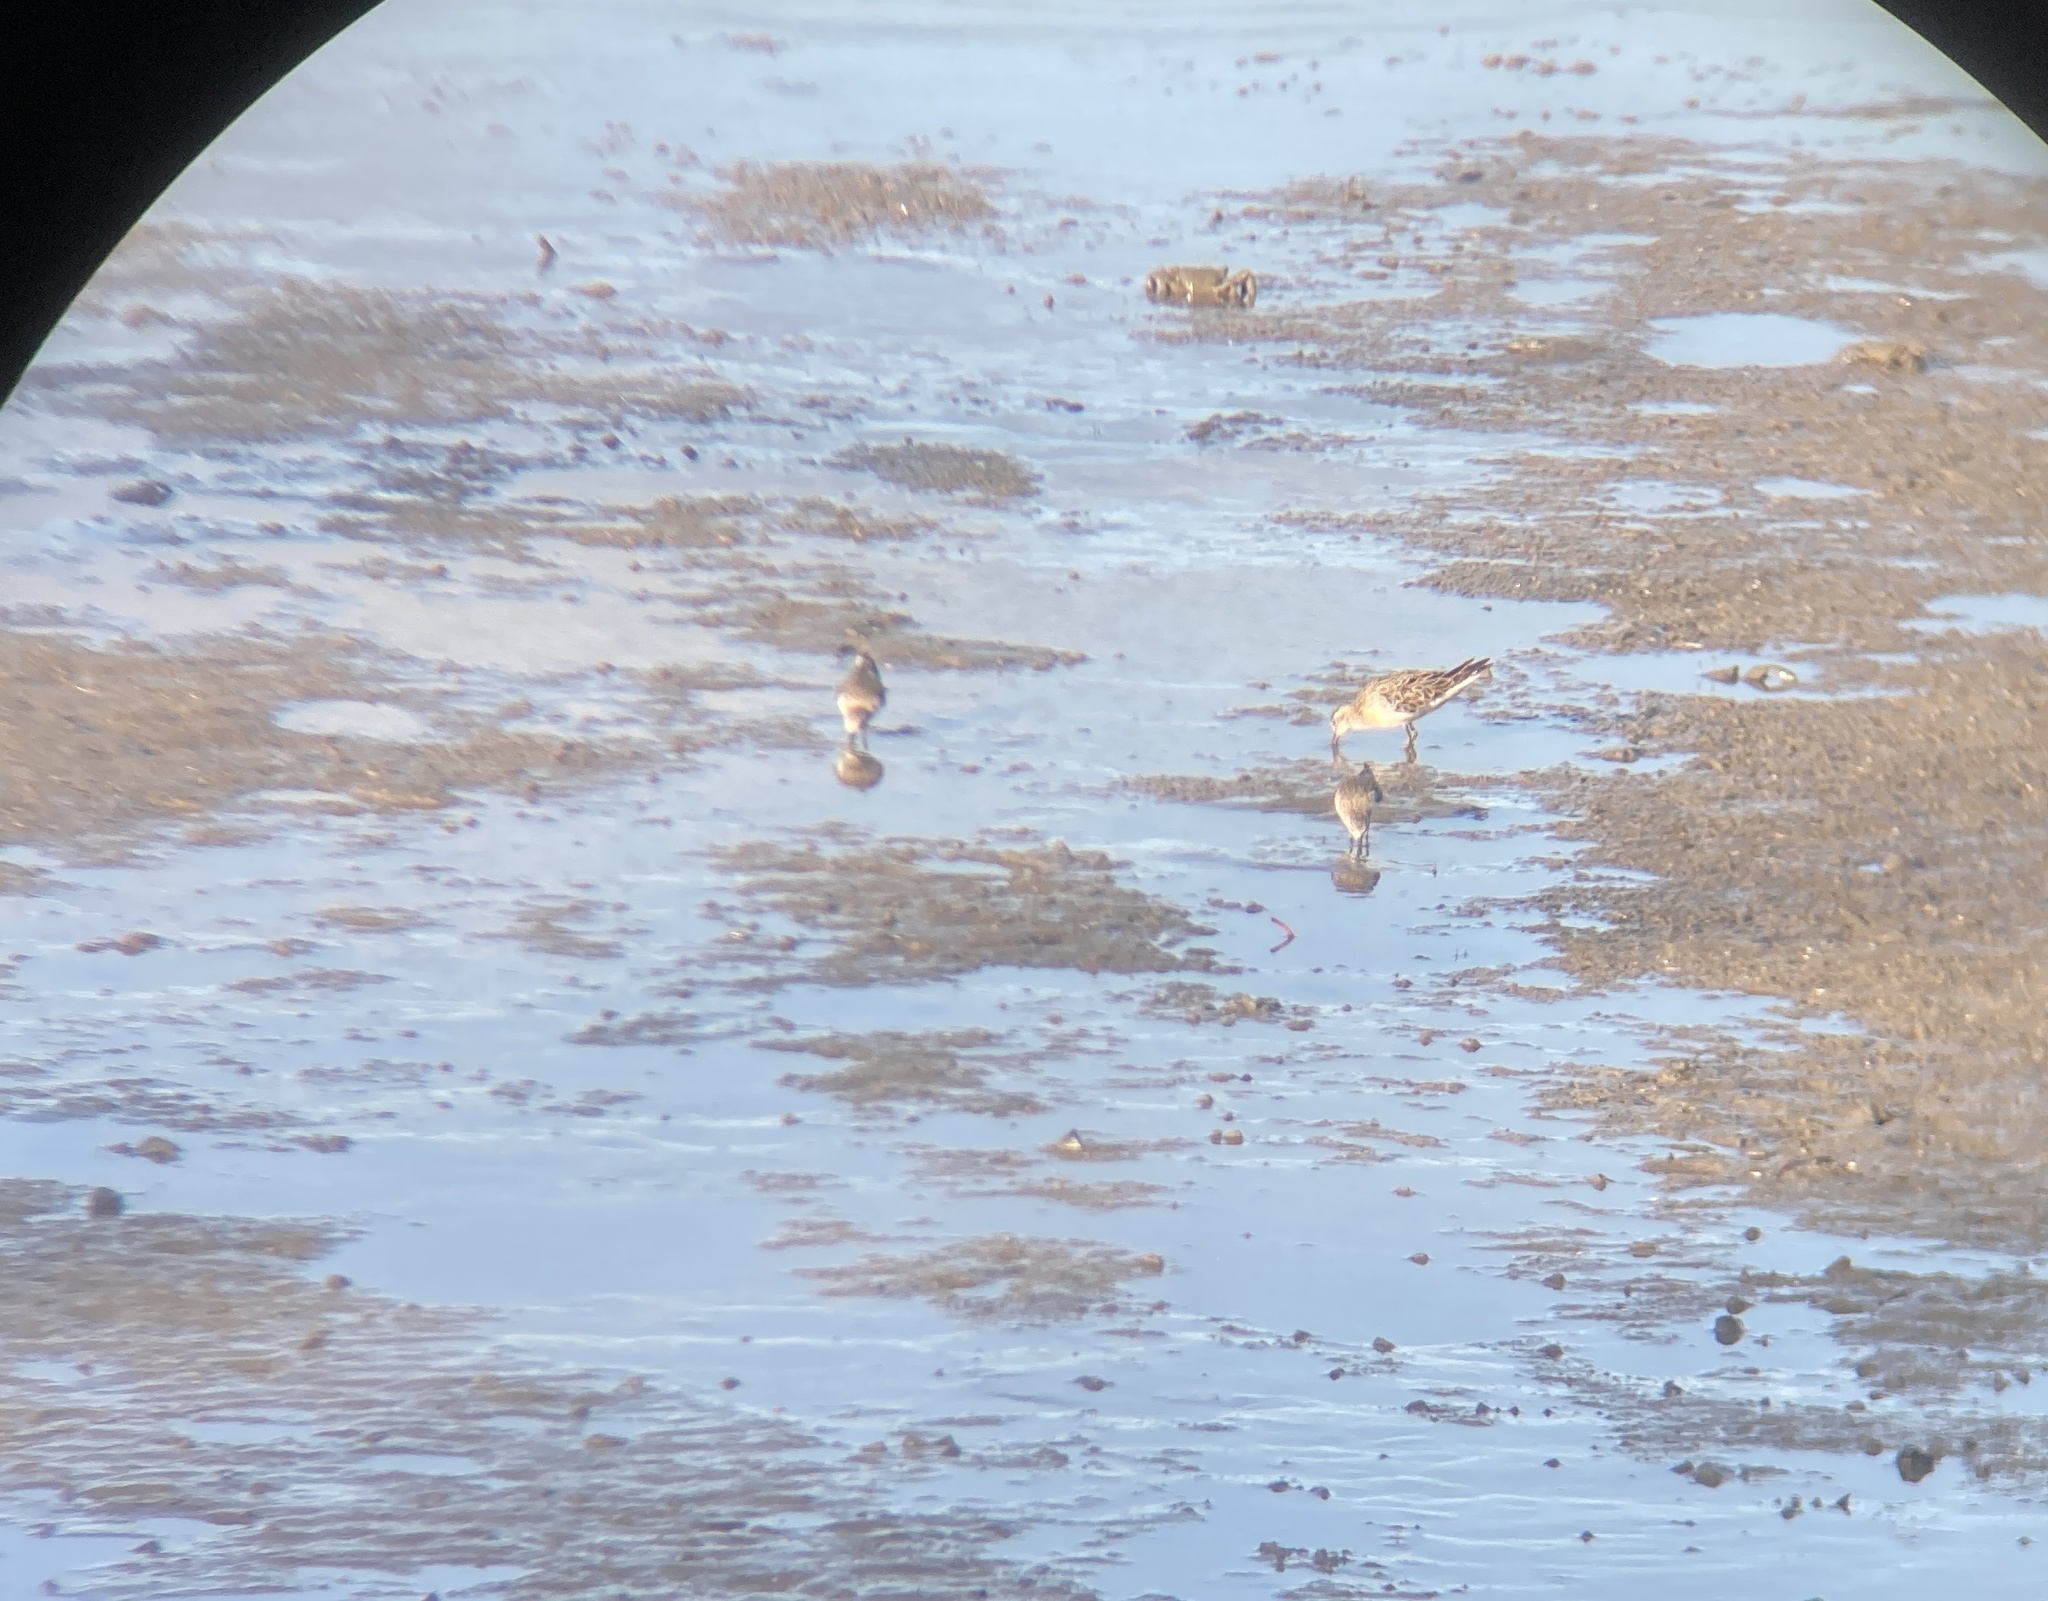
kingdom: Animalia
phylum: Chordata
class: Aves
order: Charadriiformes
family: Scolopacidae
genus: Calidris
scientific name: Calidris acuminata
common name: Sharp-tailed sandpiper
